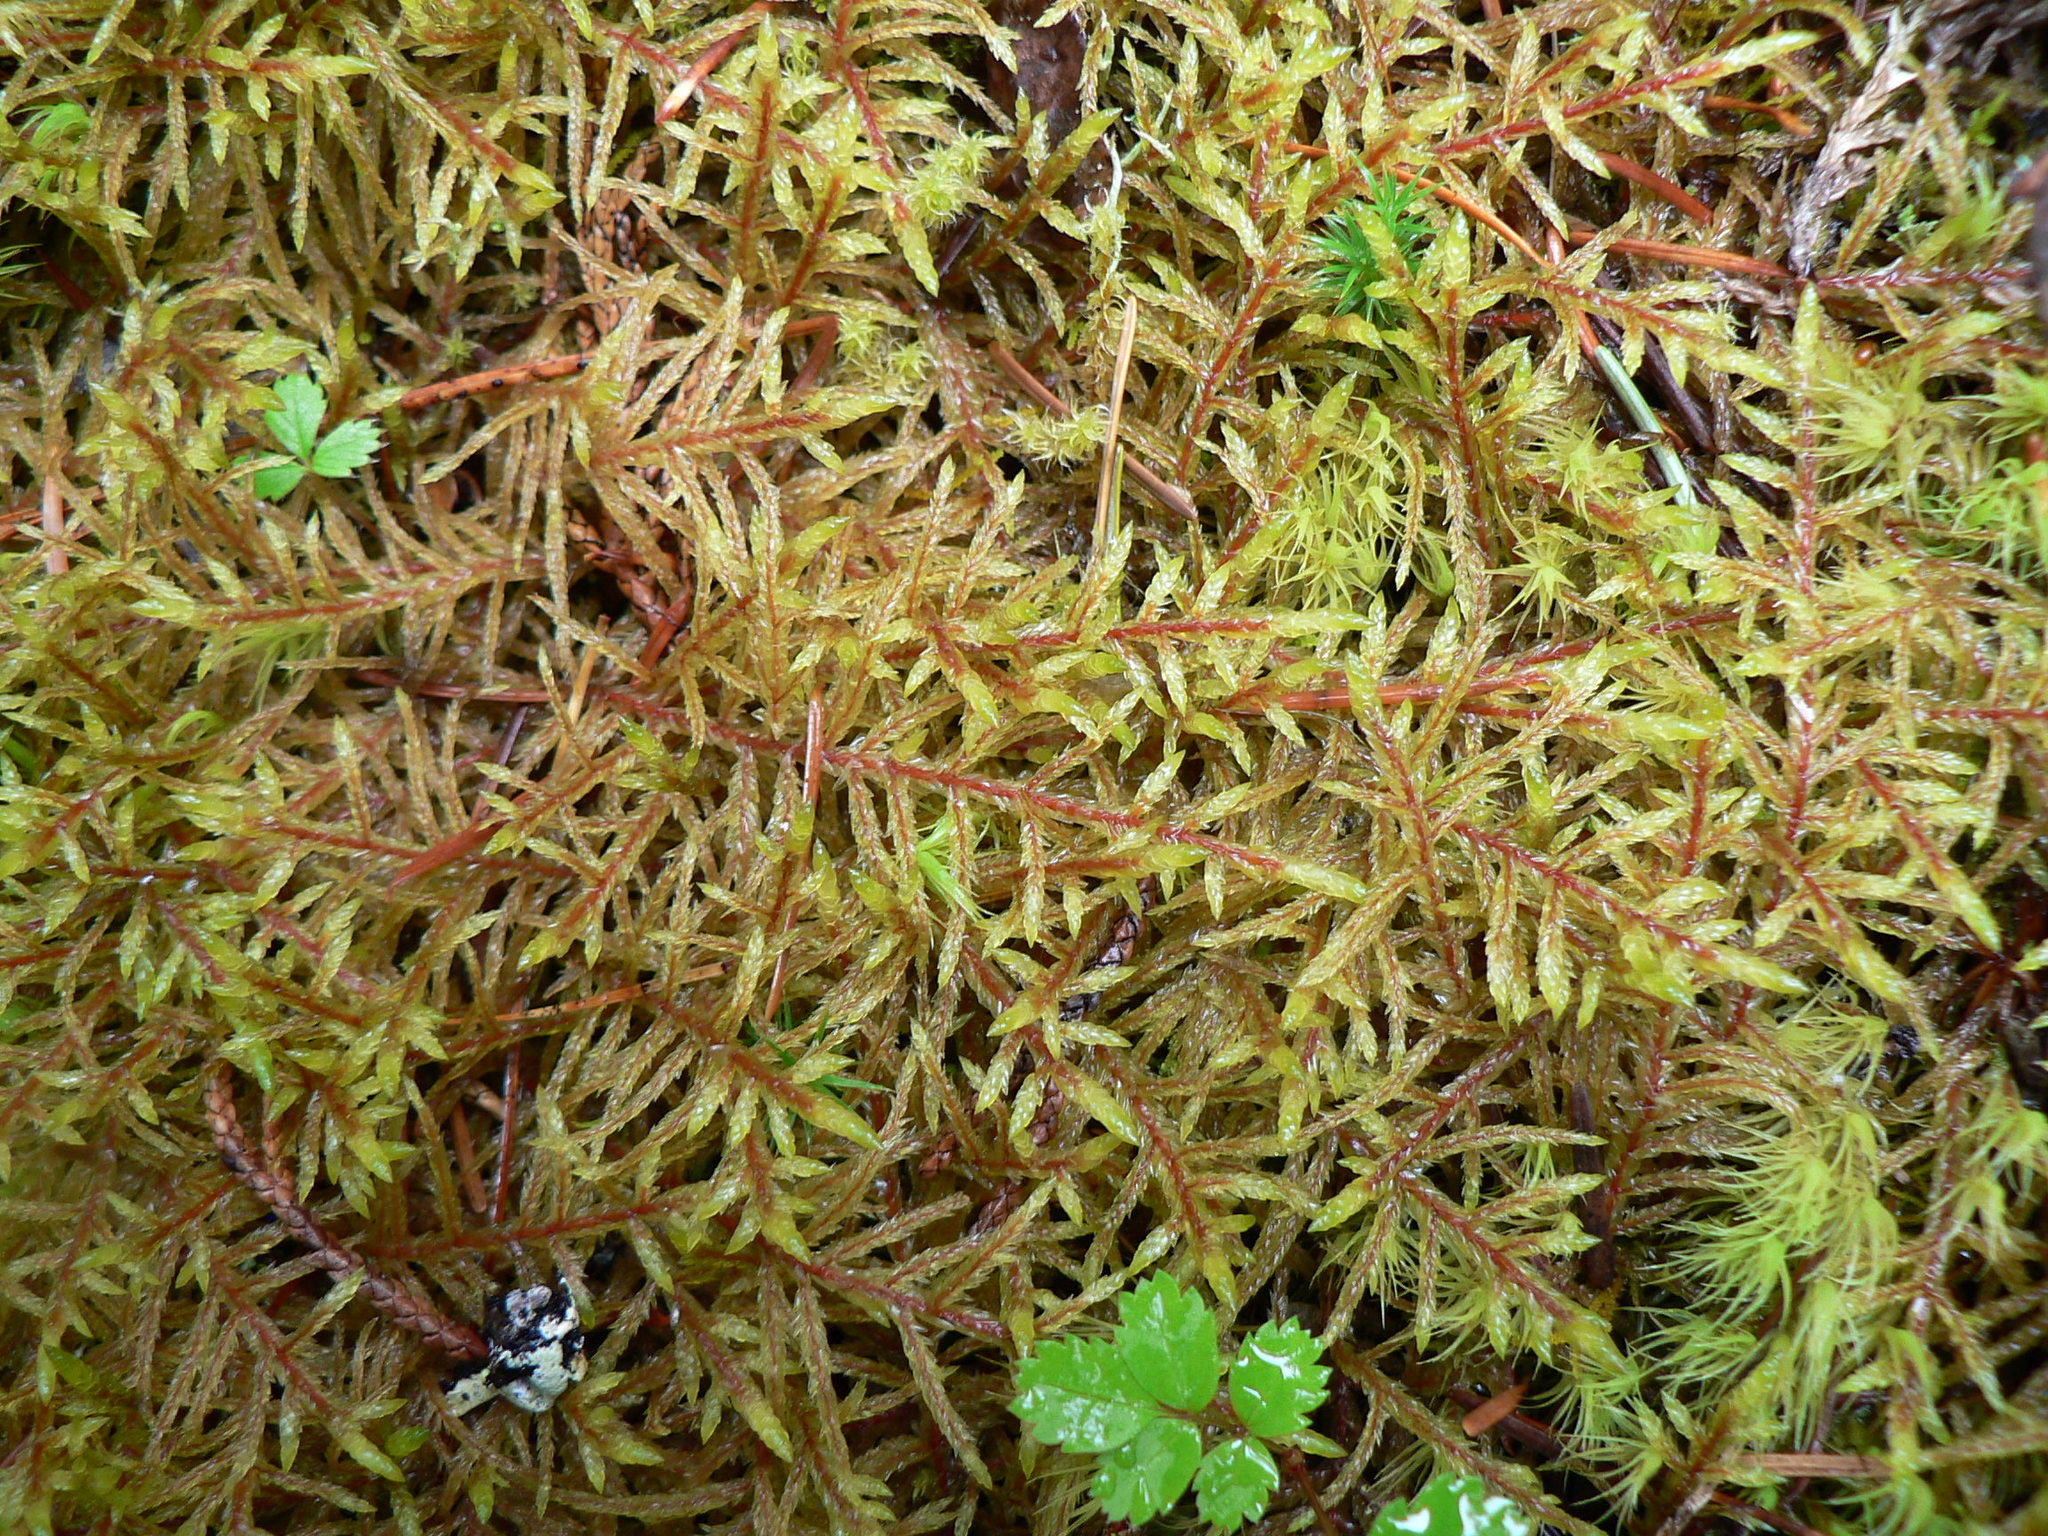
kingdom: Plantae
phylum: Bryophyta
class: Bryopsida
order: Hypnales
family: Hylocomiaceae
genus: Pleurozium
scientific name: Pleurozium schreberi
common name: Red-stemmed feather moss
